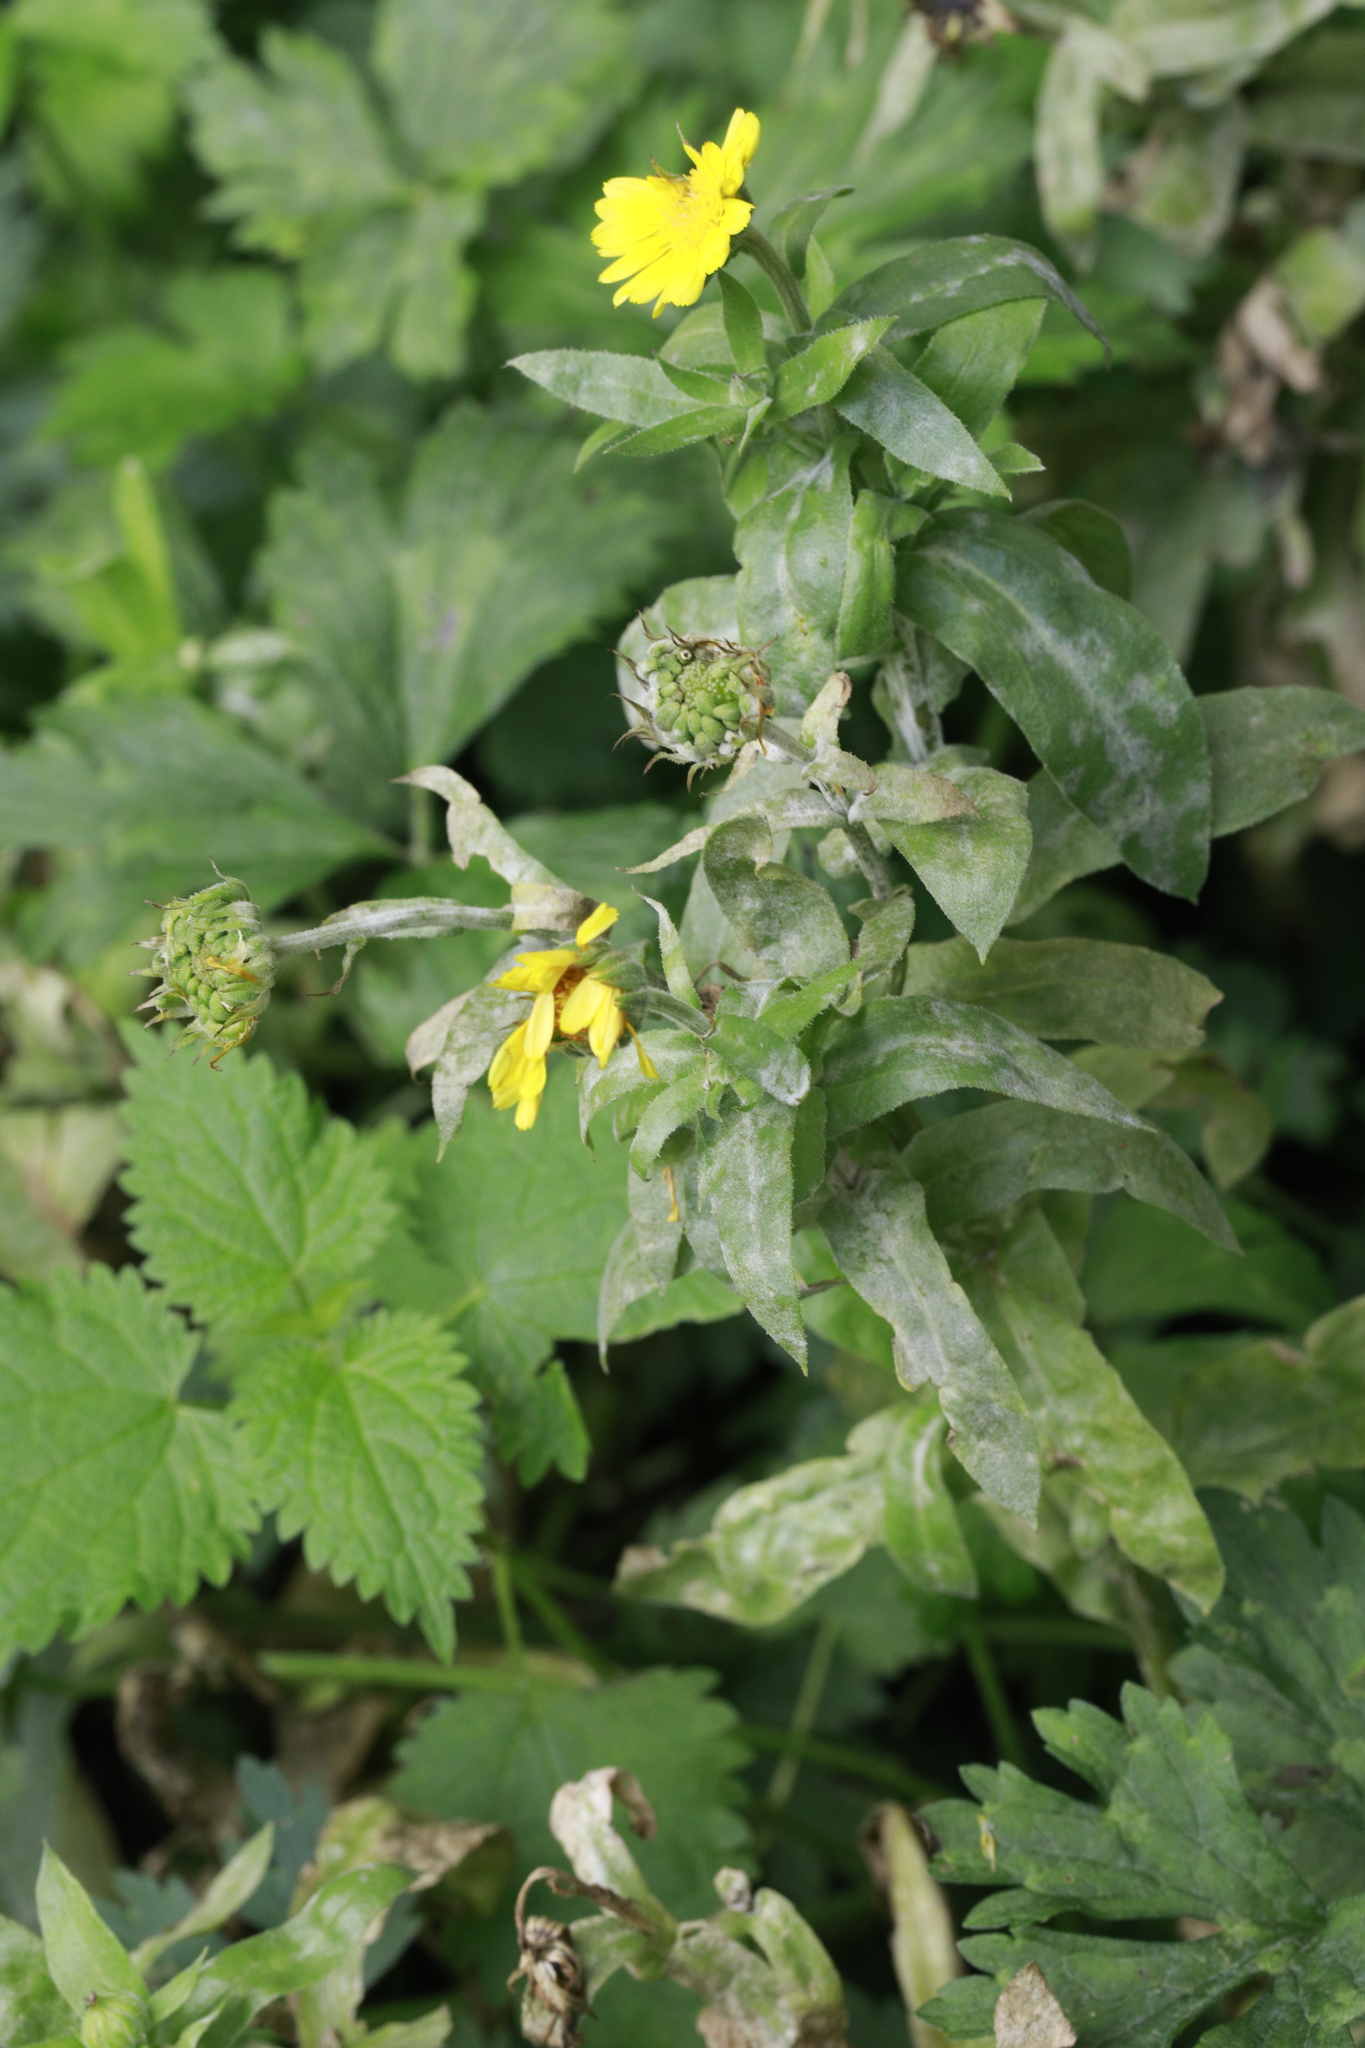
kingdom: Plantae
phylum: Tracheophyta
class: Magnoliopsida
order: Asterales
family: Asteraceae
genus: Calendula
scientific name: Calendula officinalis
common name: Pot marigold
